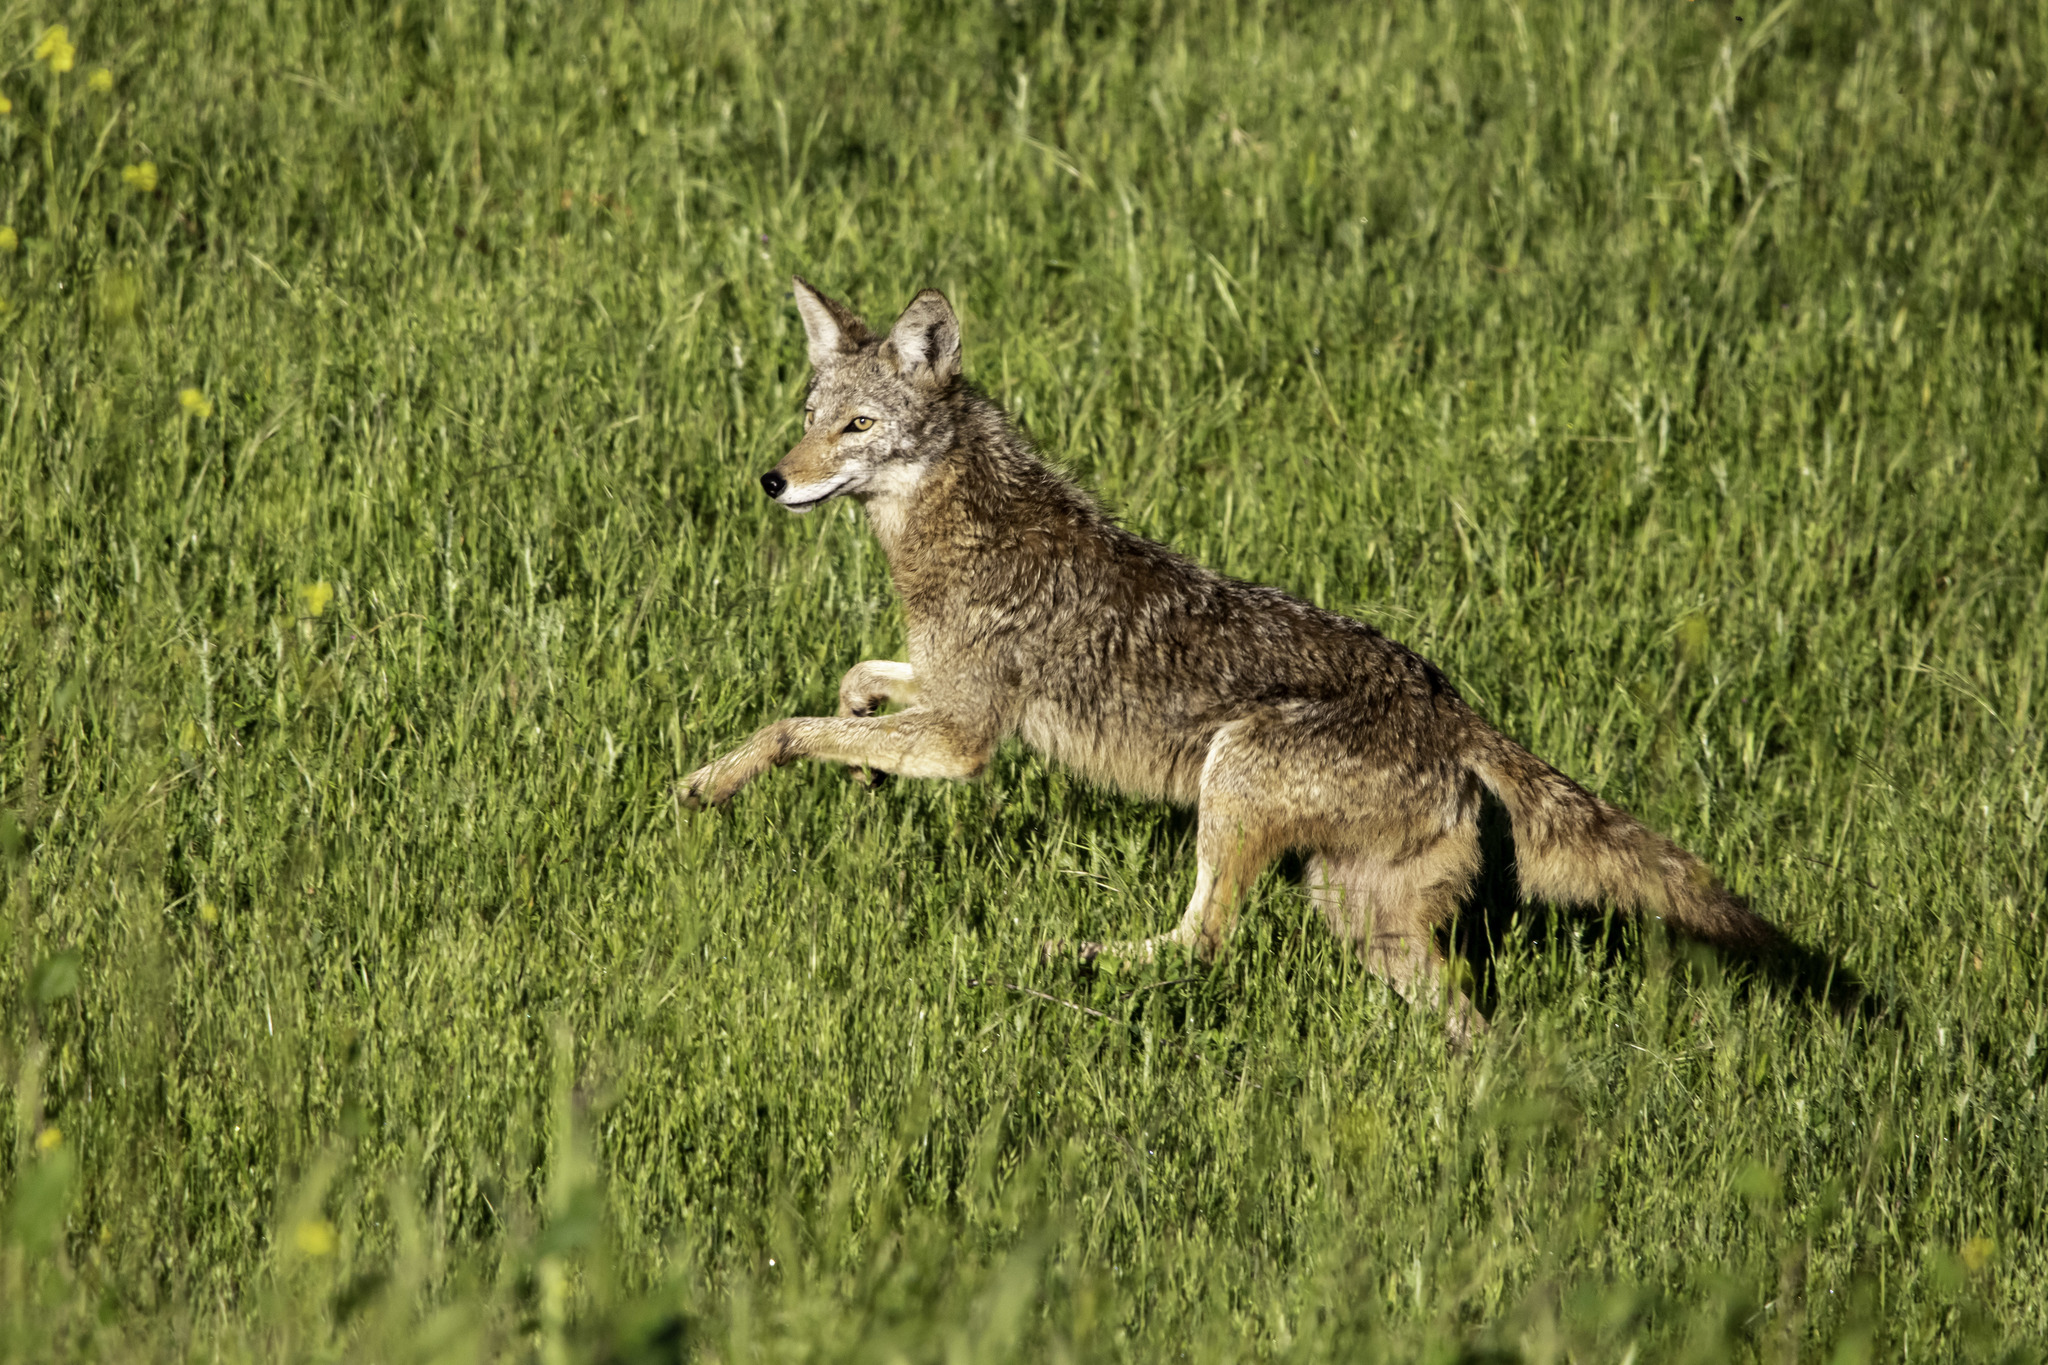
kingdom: Animalia
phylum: Chordata
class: Mammalia
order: Carnivora
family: Canidae
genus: Canis
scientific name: Canis latrans
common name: Coyote
